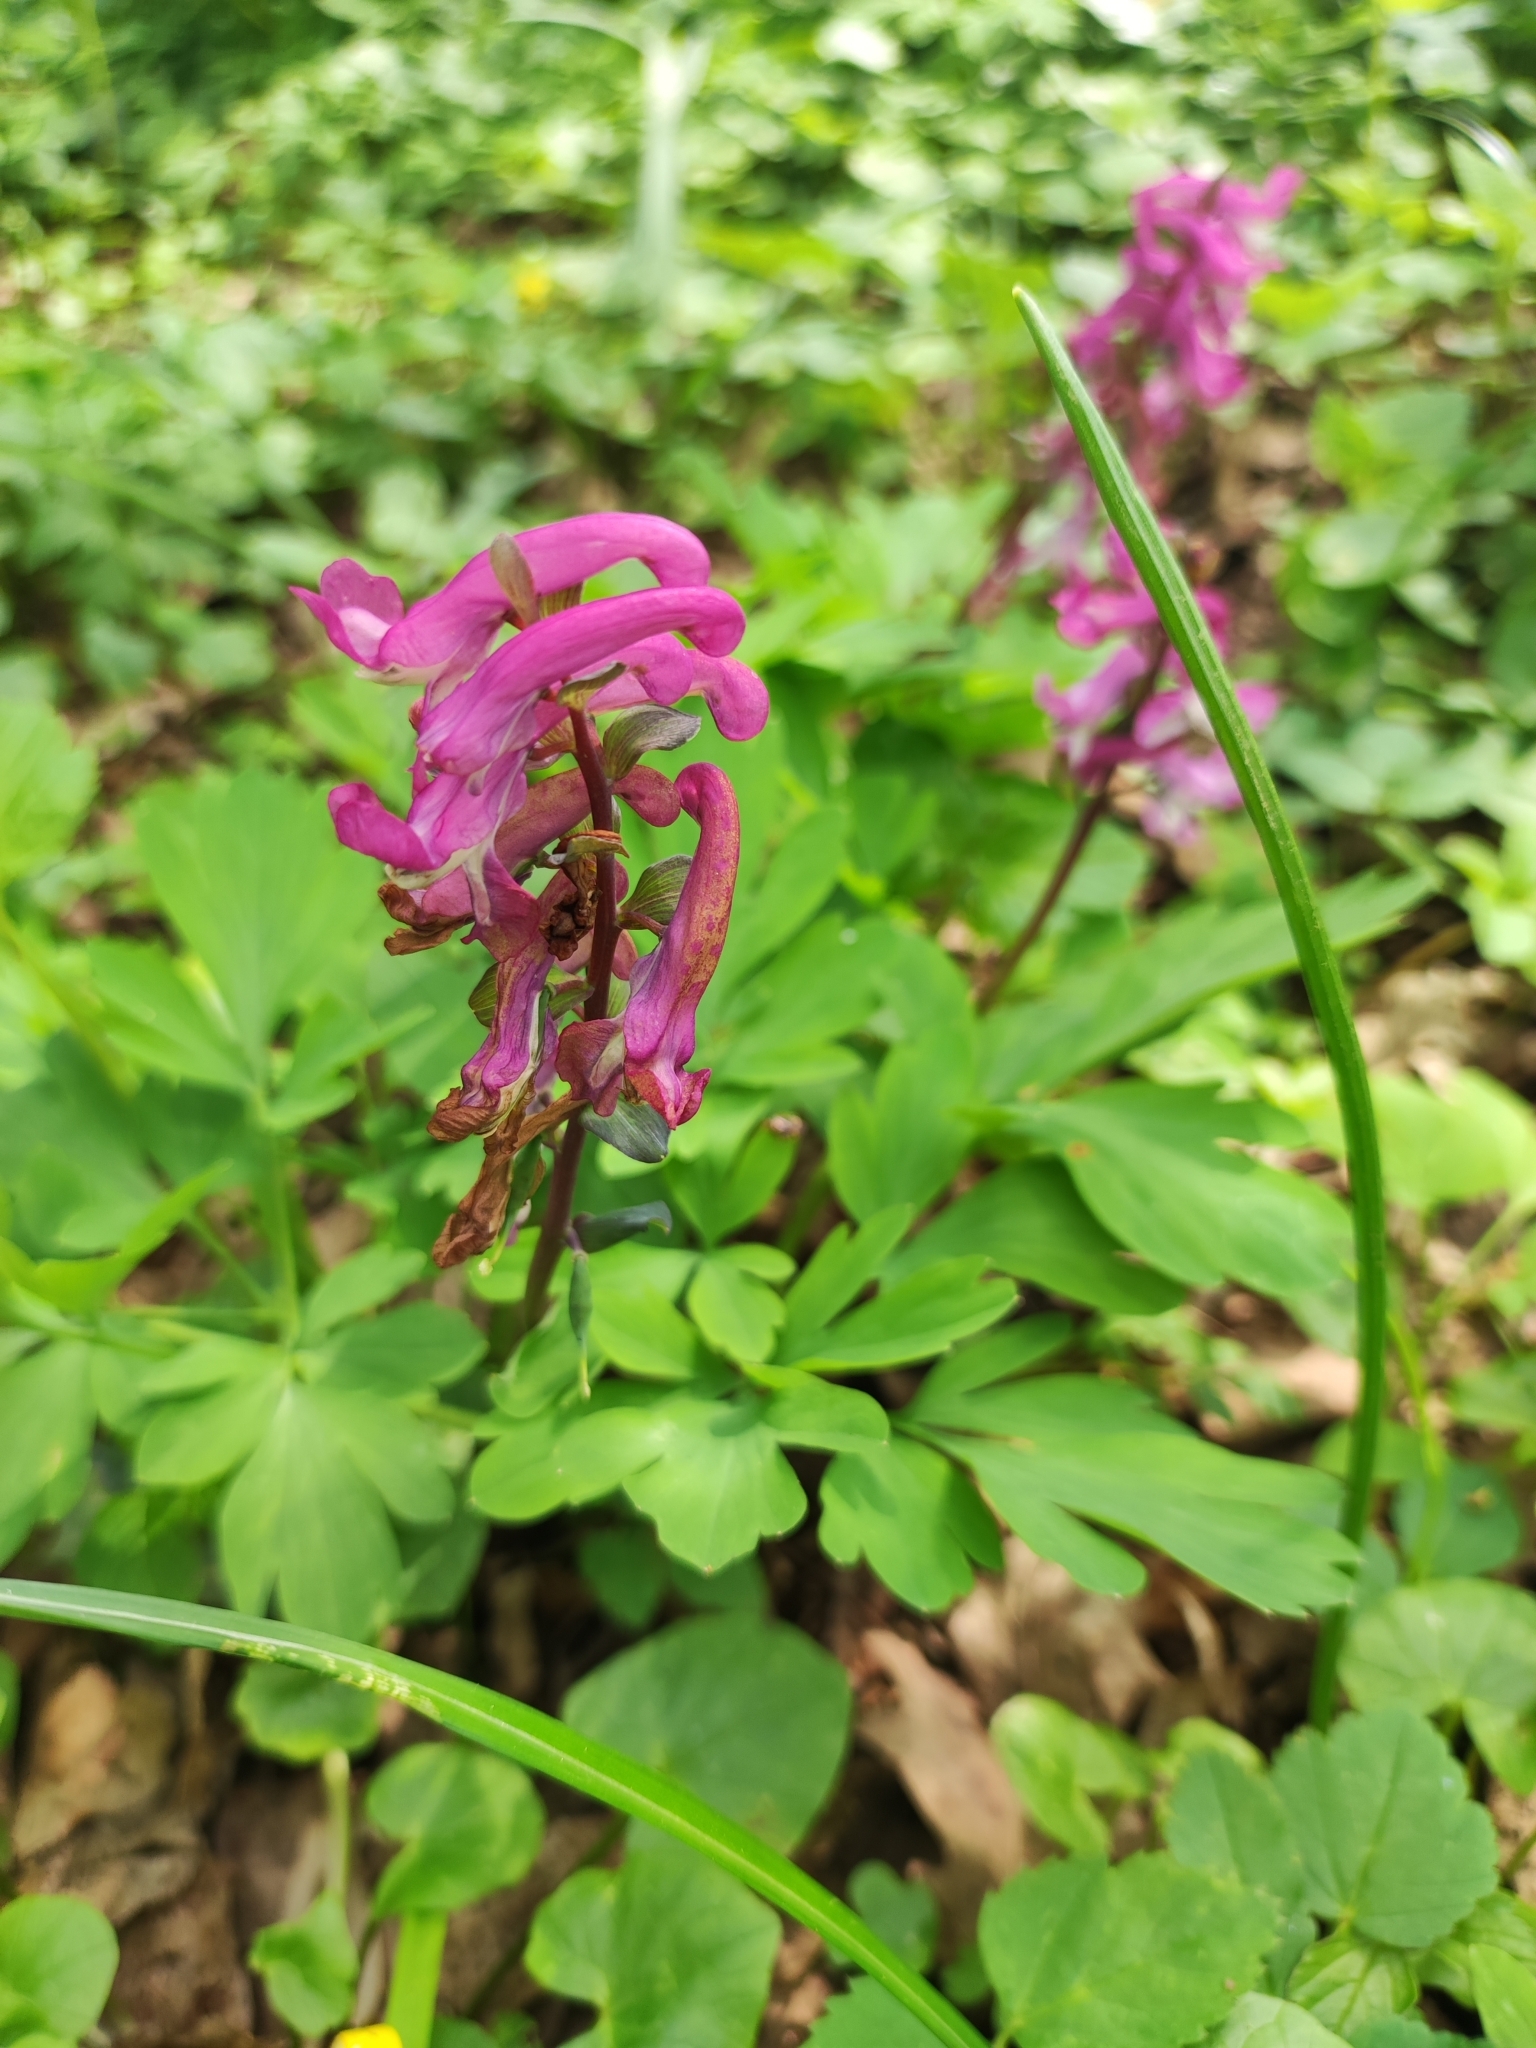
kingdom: Plantae
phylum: Tracheophyta
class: Magnoliopsida
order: Ranunculales
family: Papaveraceae
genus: Corydalis
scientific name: Corydalis cava
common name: Hollowroot
